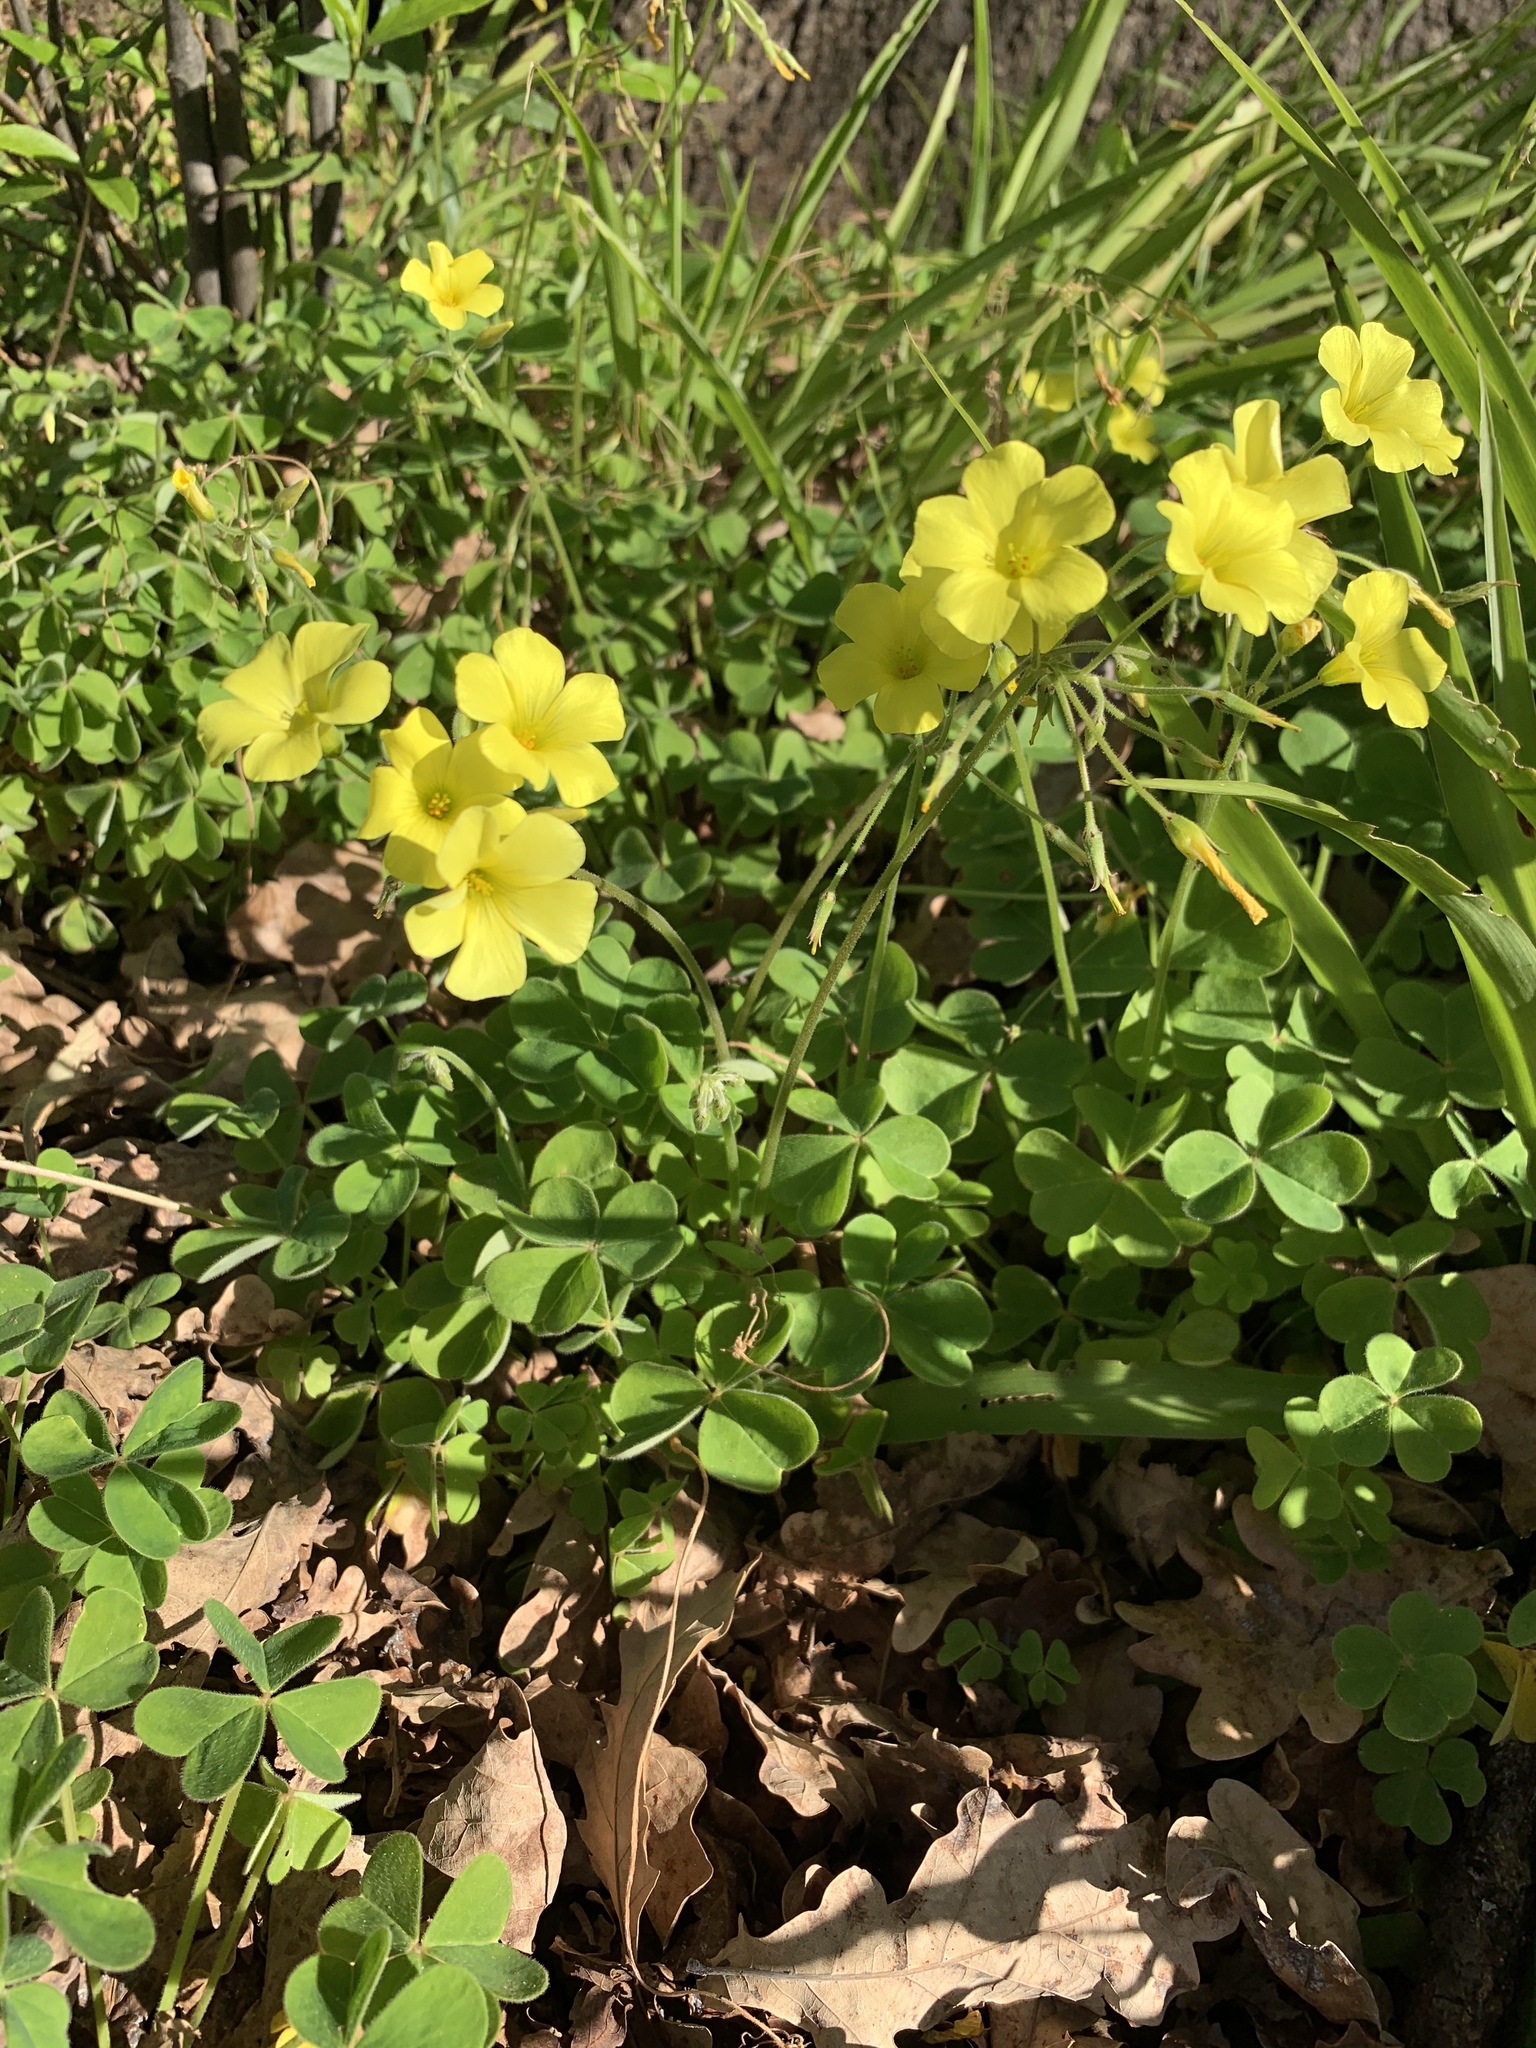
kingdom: Plantae
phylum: Tracheophyta
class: Magnoliopsida
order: Oxalidales
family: Oxalidaceae
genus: Oxalis
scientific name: Oxalis pes-caprae
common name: Bermuda-buttercup
